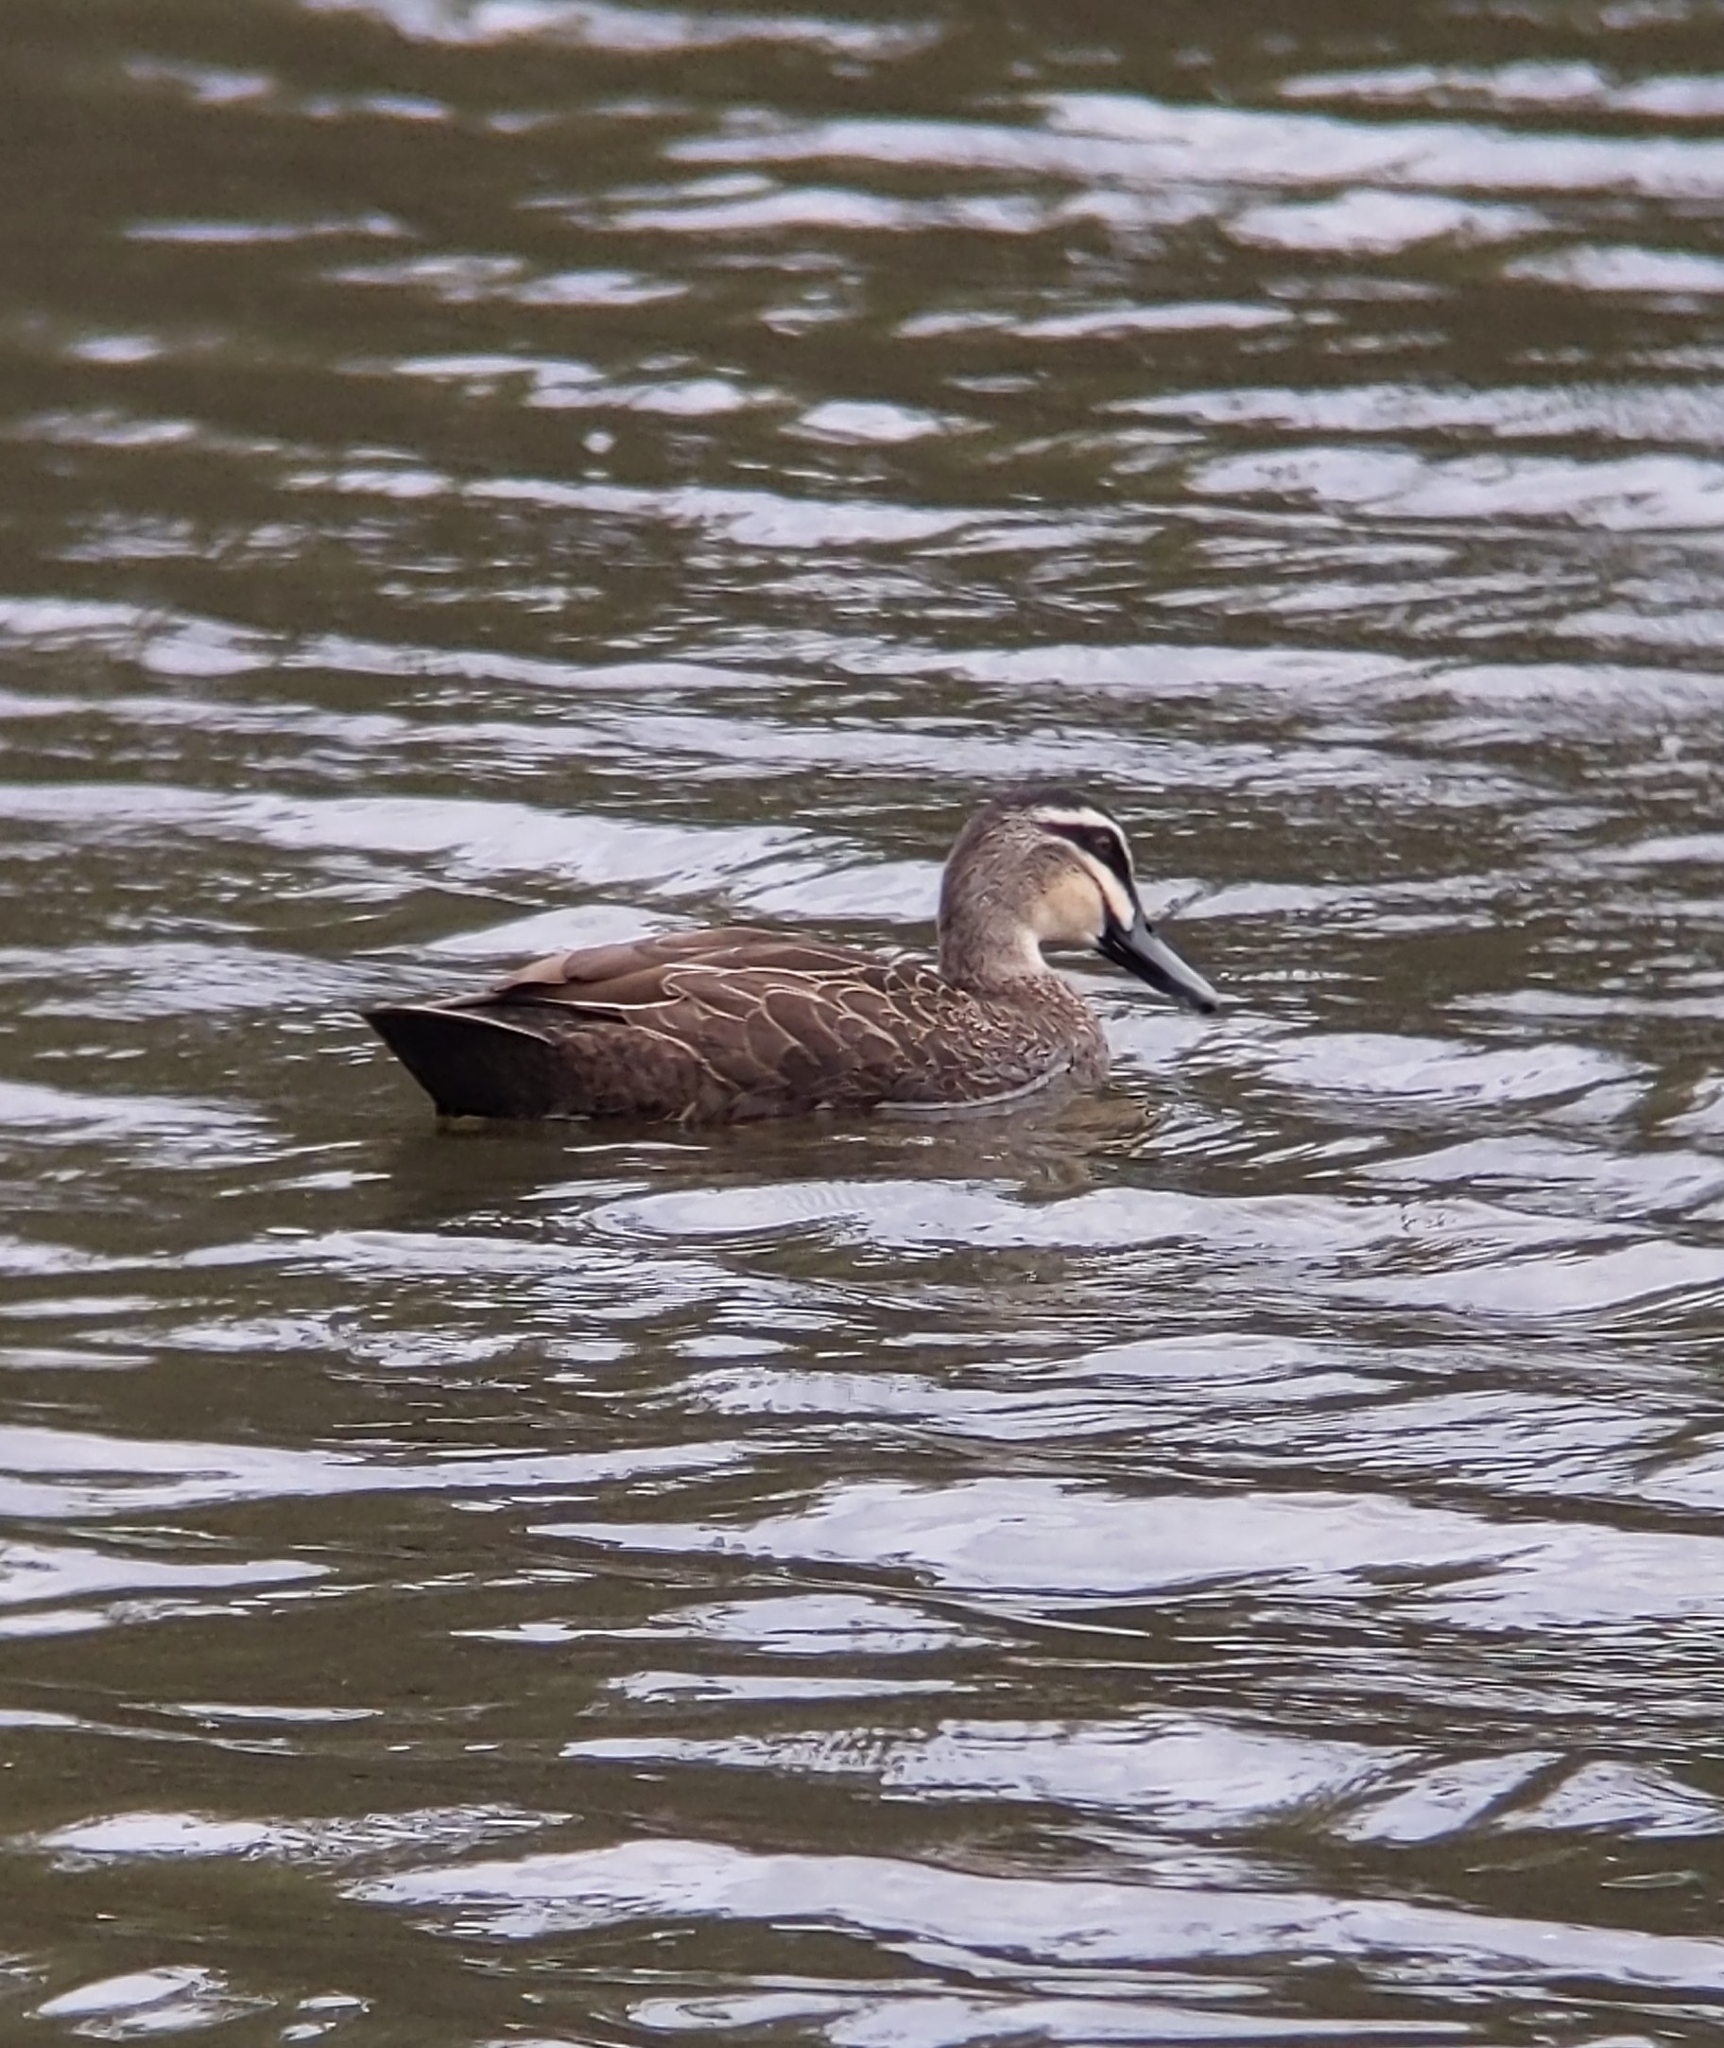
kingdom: Animalia
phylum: Chordata
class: Aves
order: Anseriformes
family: Anatidae
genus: Anas
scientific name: Anas superciliosa
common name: Pacific black duck
